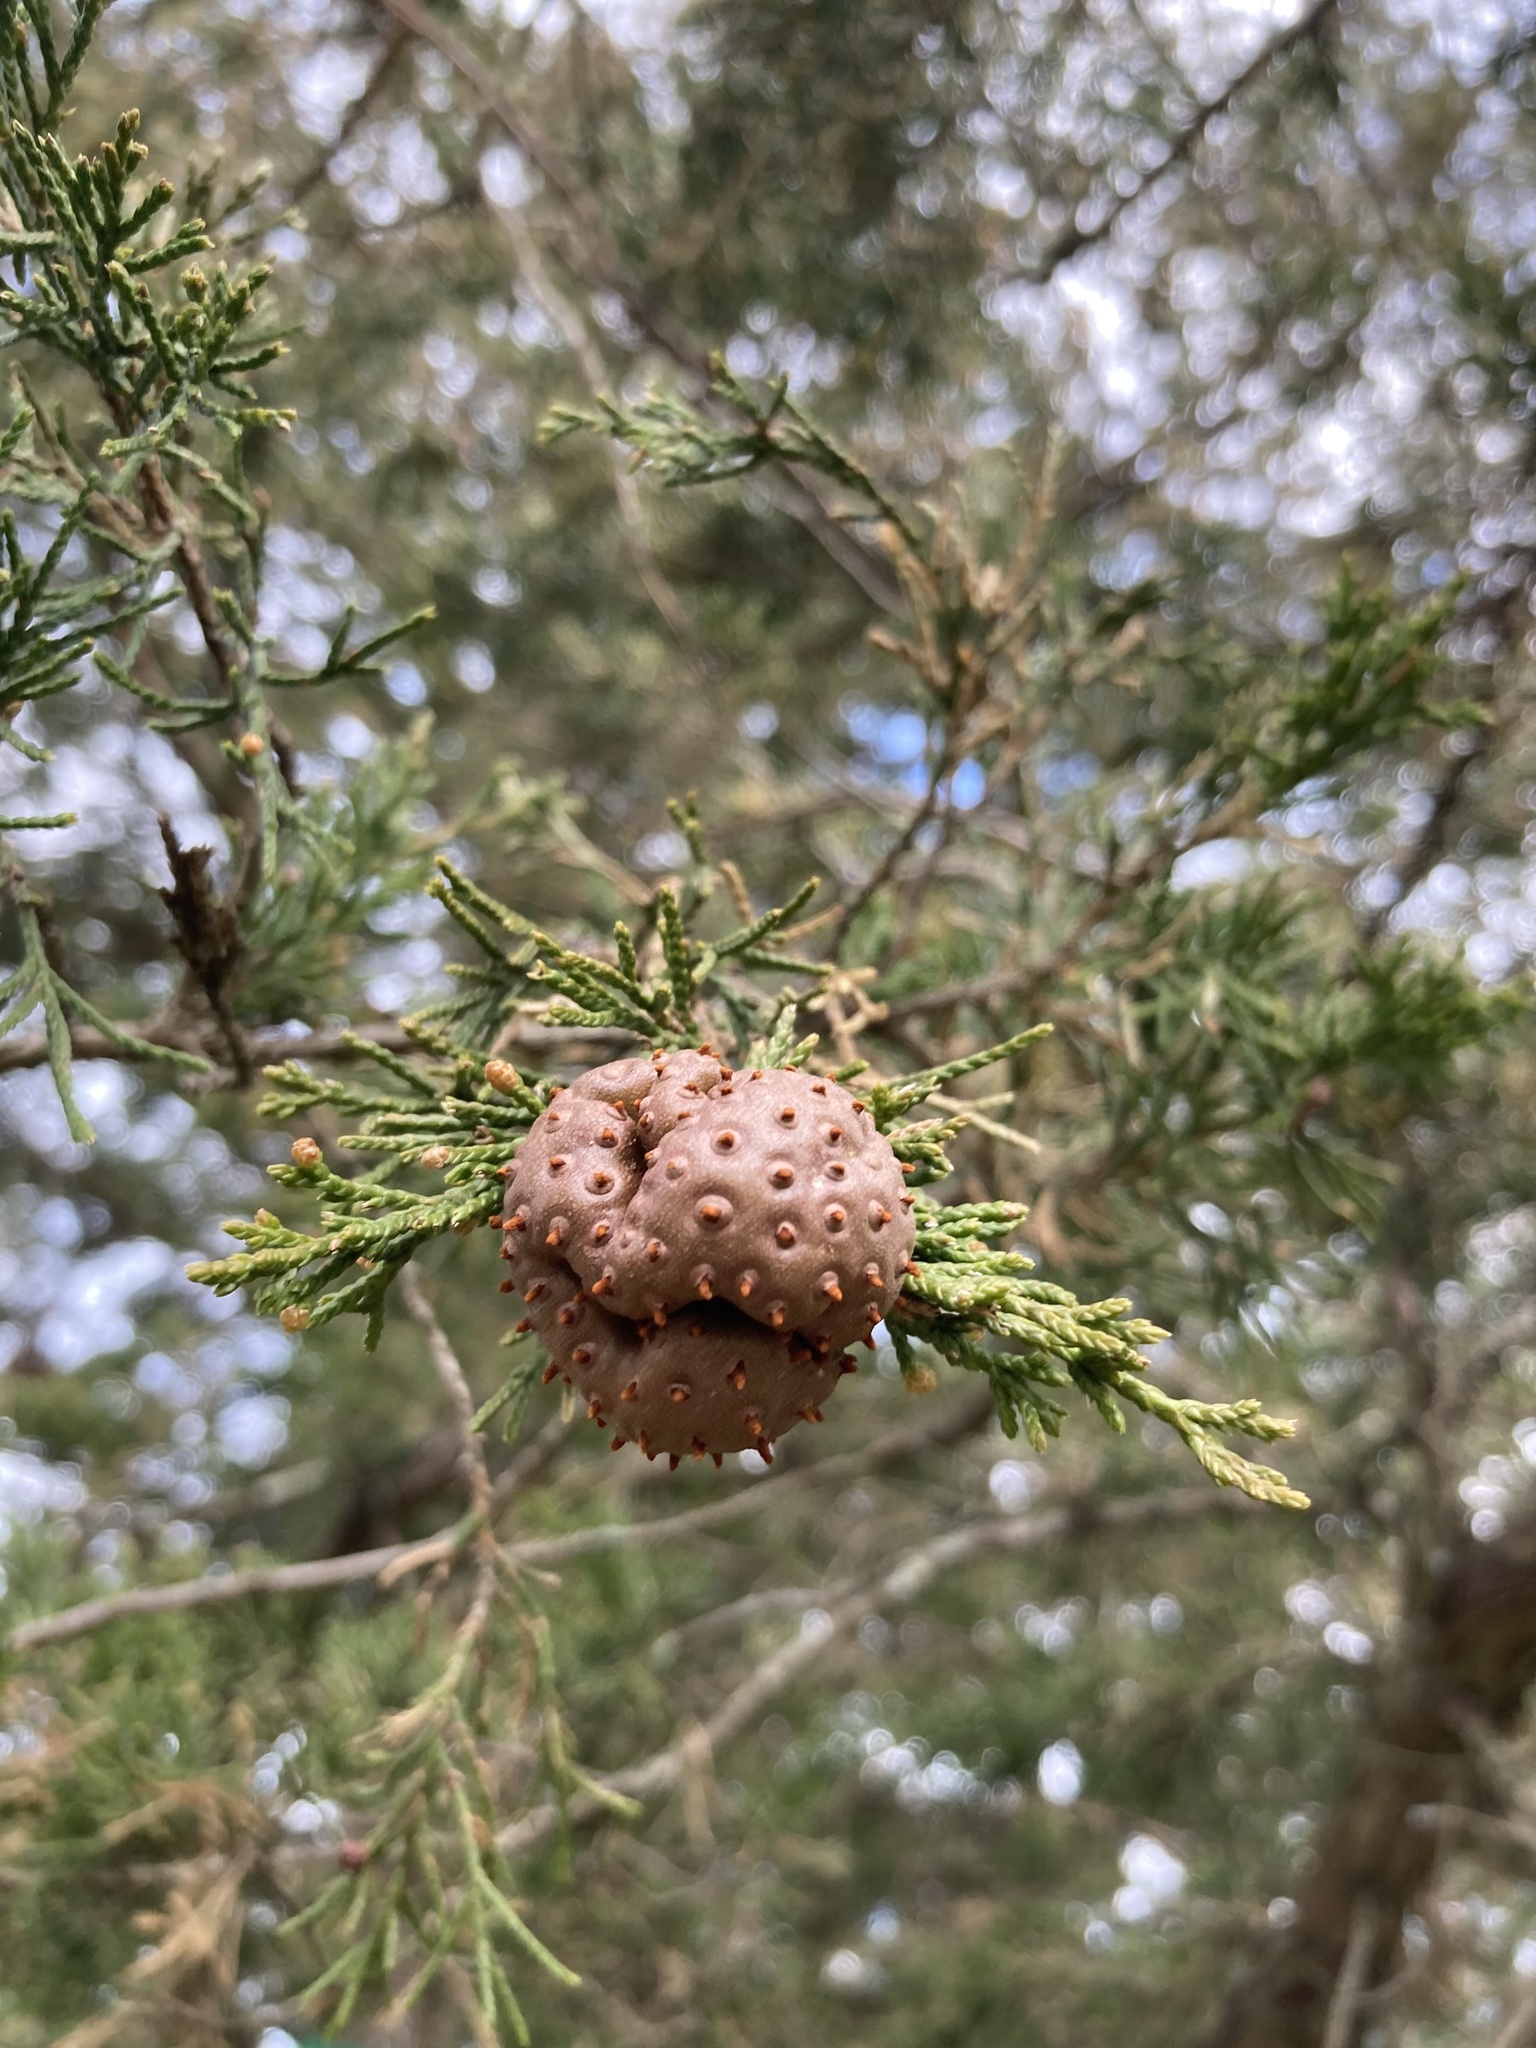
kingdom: Fungi
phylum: Basidiomycota
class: Pucciniomycetes
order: Pucciniales
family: Gymnosporangiaceae
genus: Gymnosporangium
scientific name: Gymnosporangium juniperi-virginianae
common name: Juniper-apple rust
